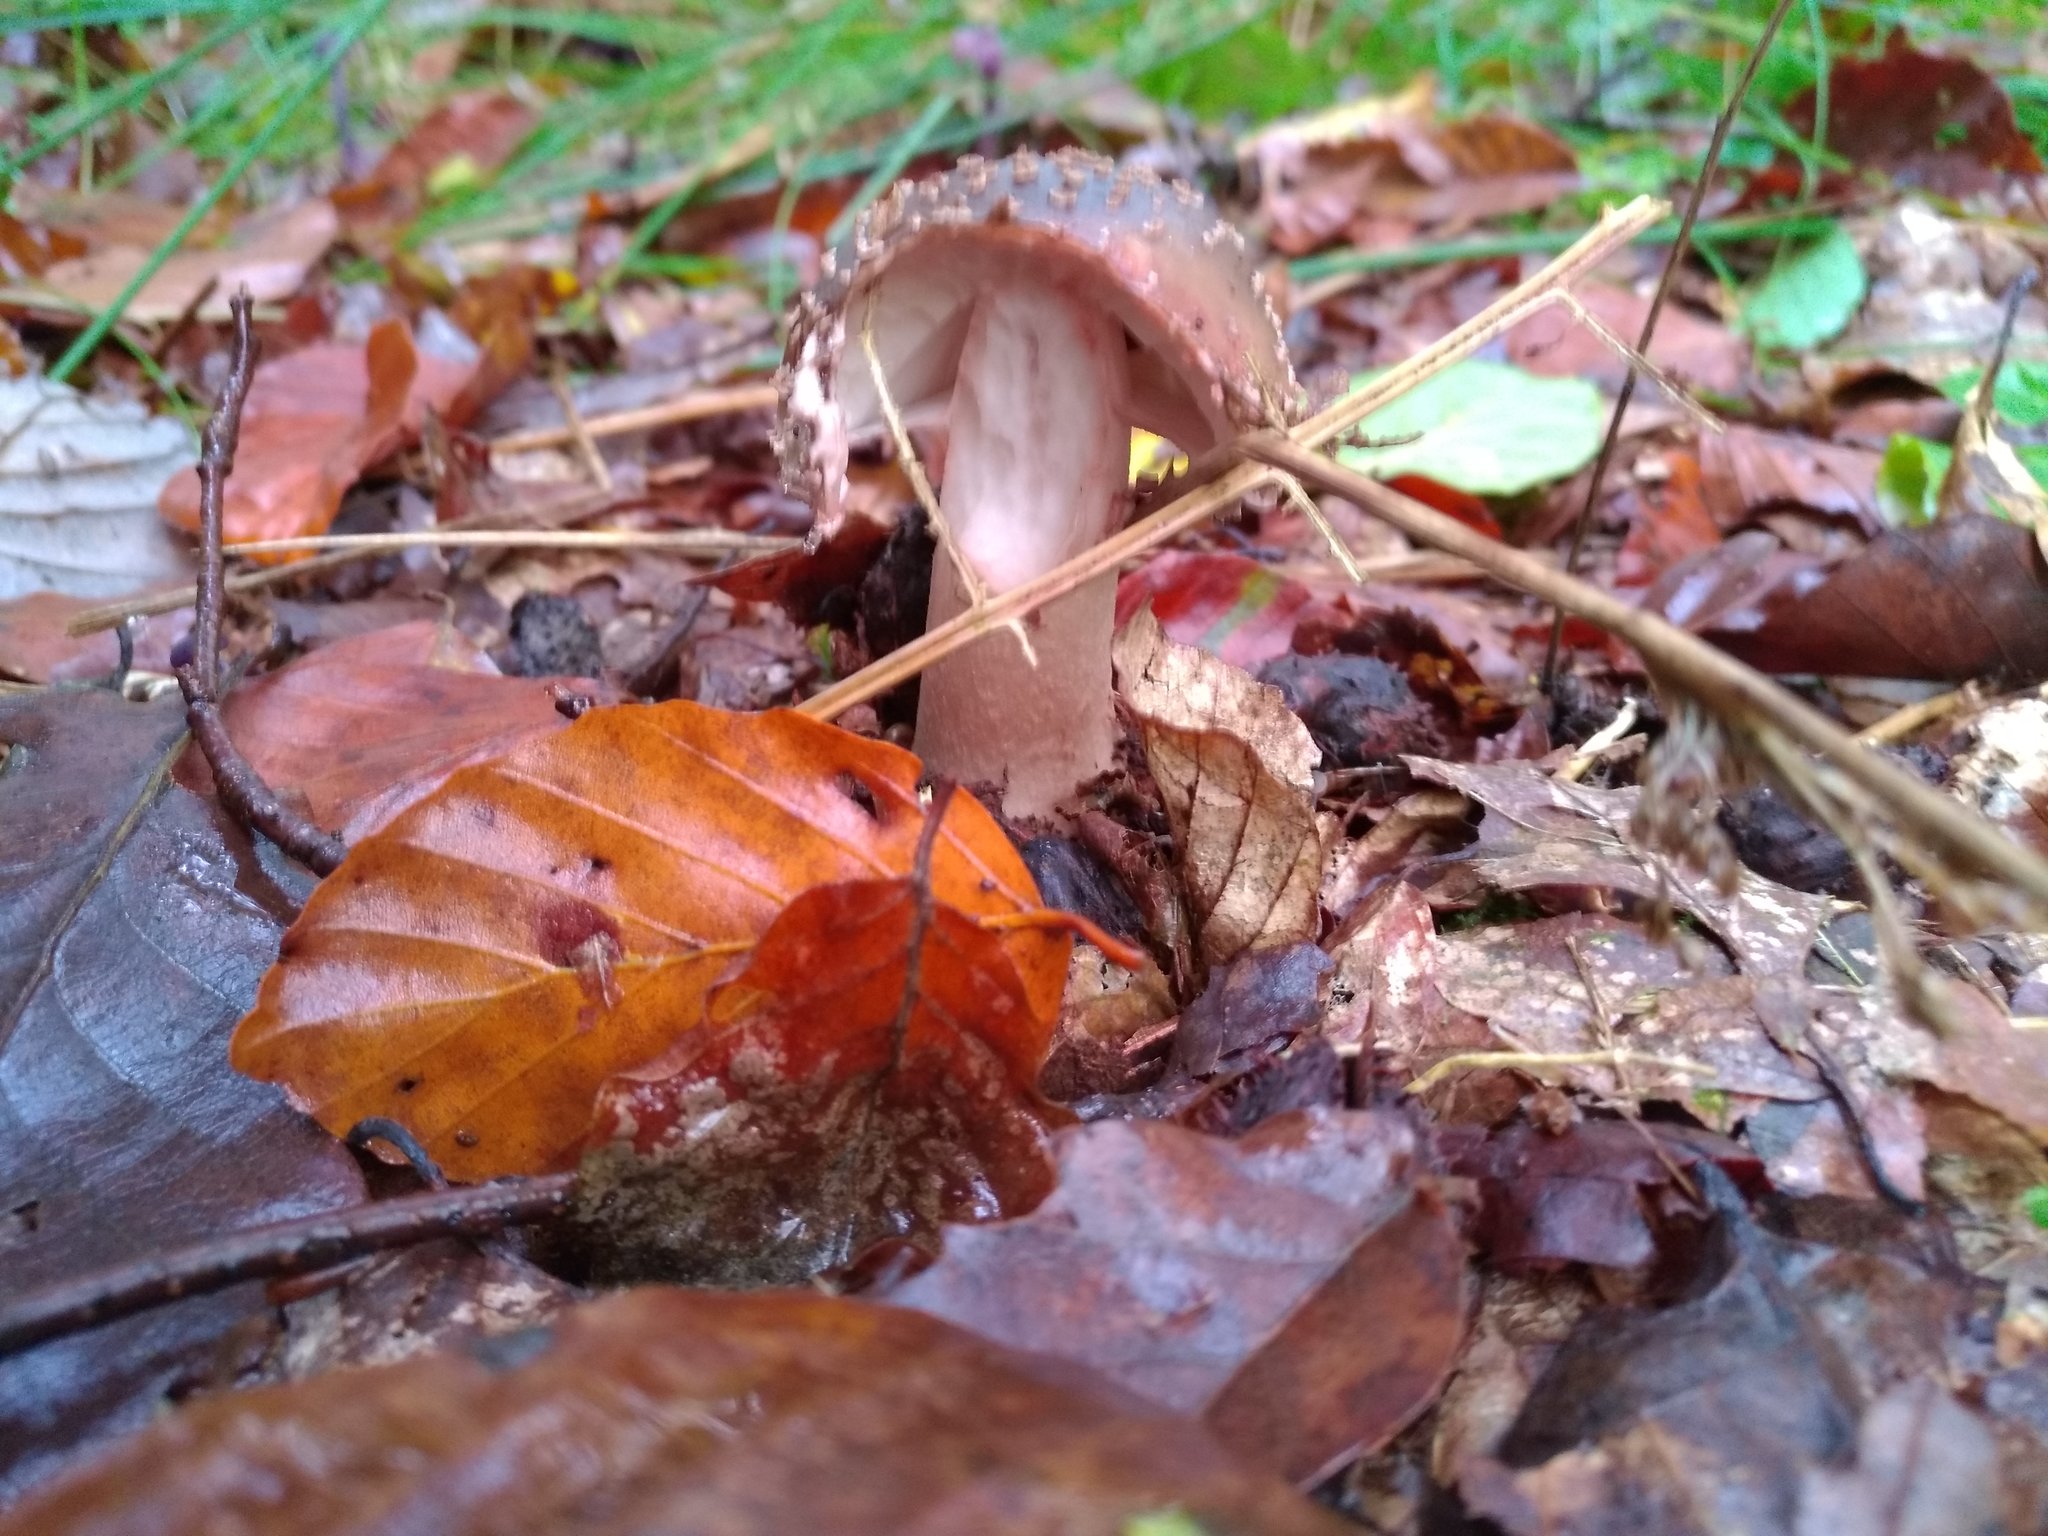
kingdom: Fungi
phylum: Basidiomycota
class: Agaricomycetes
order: Agaricales
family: Amanitaceae
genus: Amanita
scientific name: Amanita rubescens
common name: Blusher
